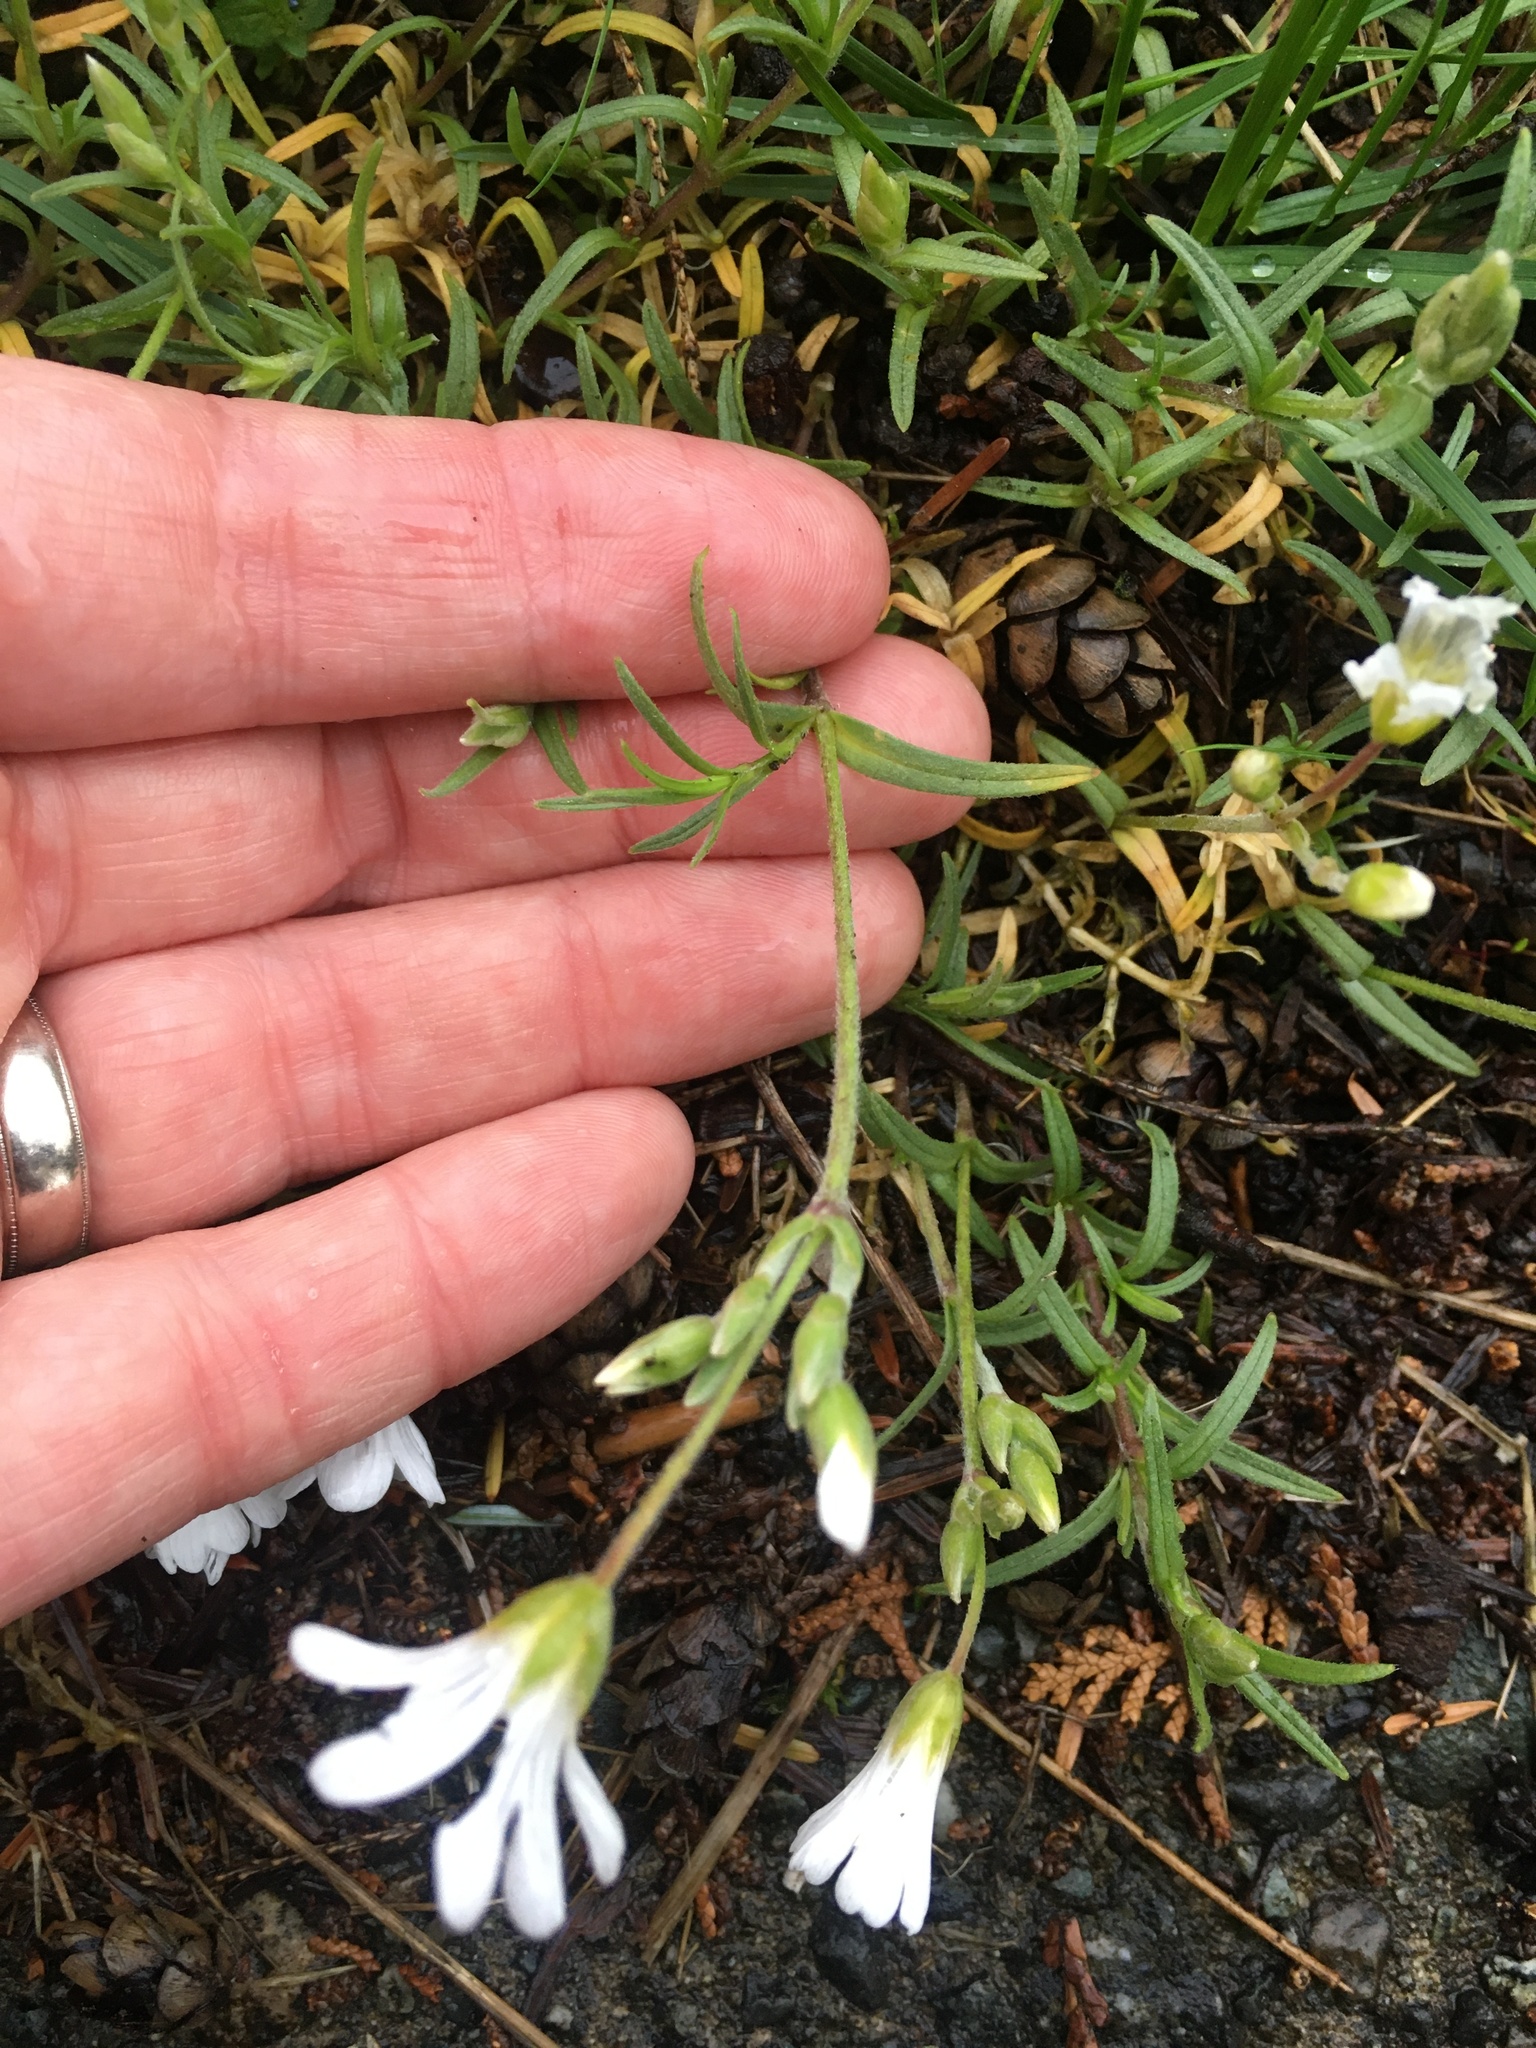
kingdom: Plantae
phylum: Tracheophyta
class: Magnoliopsida
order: Caryophyllales
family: Caryophyllaceae
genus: Cerastium
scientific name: Cerastium arvense
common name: Field mouse-ear
